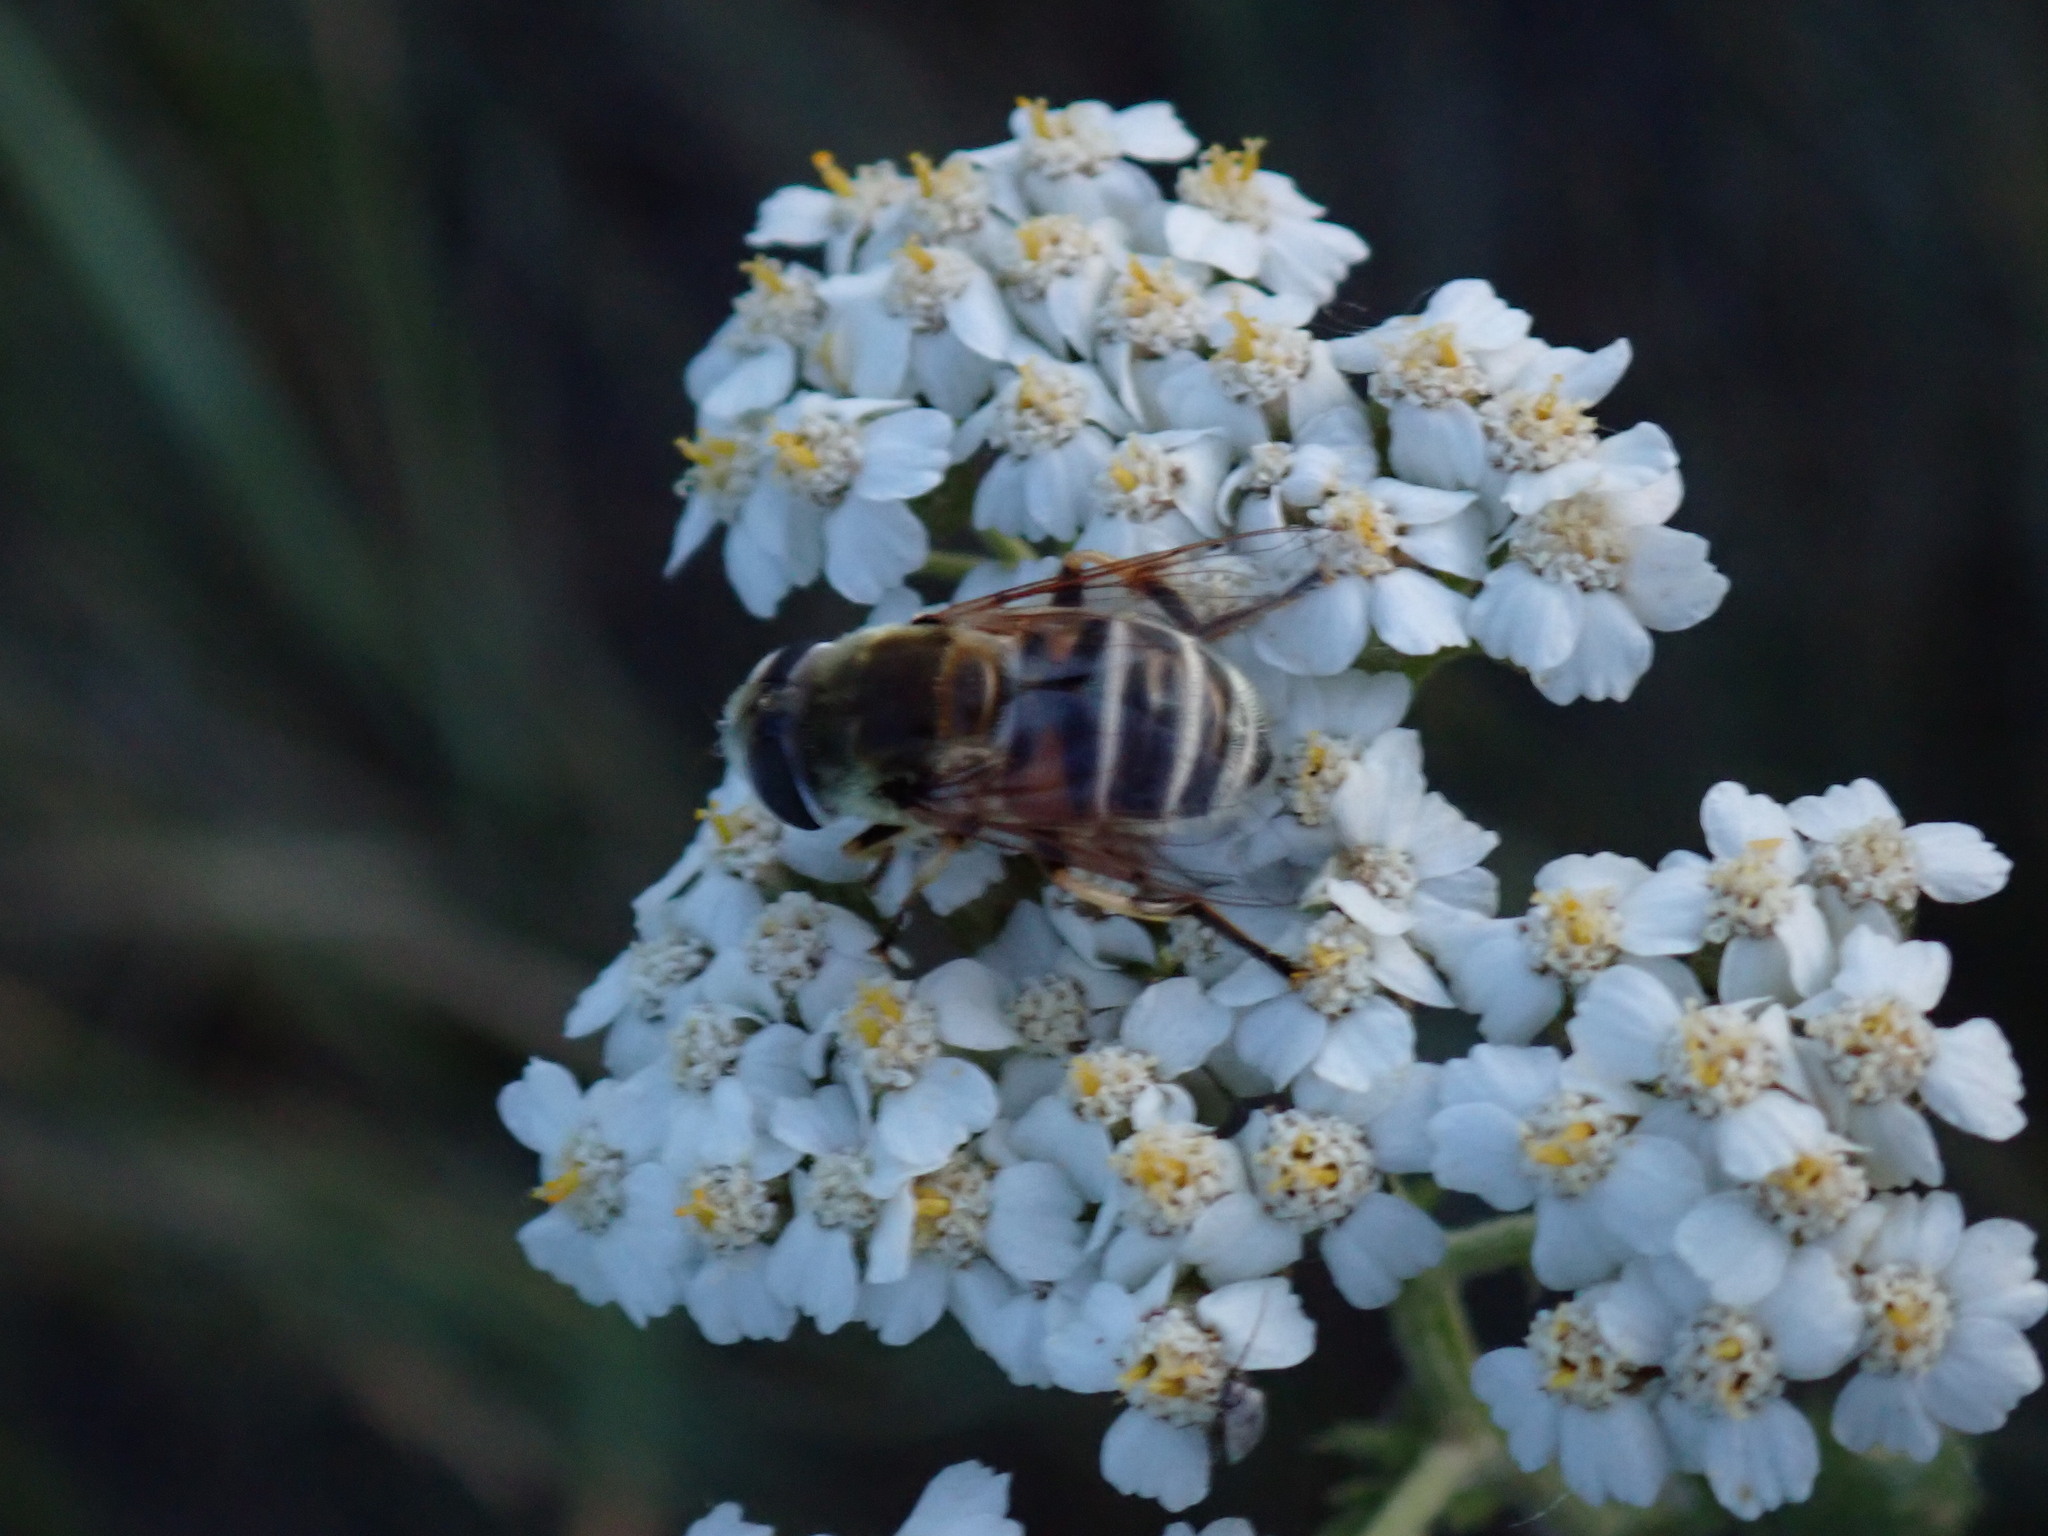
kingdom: Animalia
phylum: Arthropoda
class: Insecta
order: Diptera
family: Syrphidae
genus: Eristalis
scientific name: Eristalis stipator
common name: Yellow-shouldered drone fly
